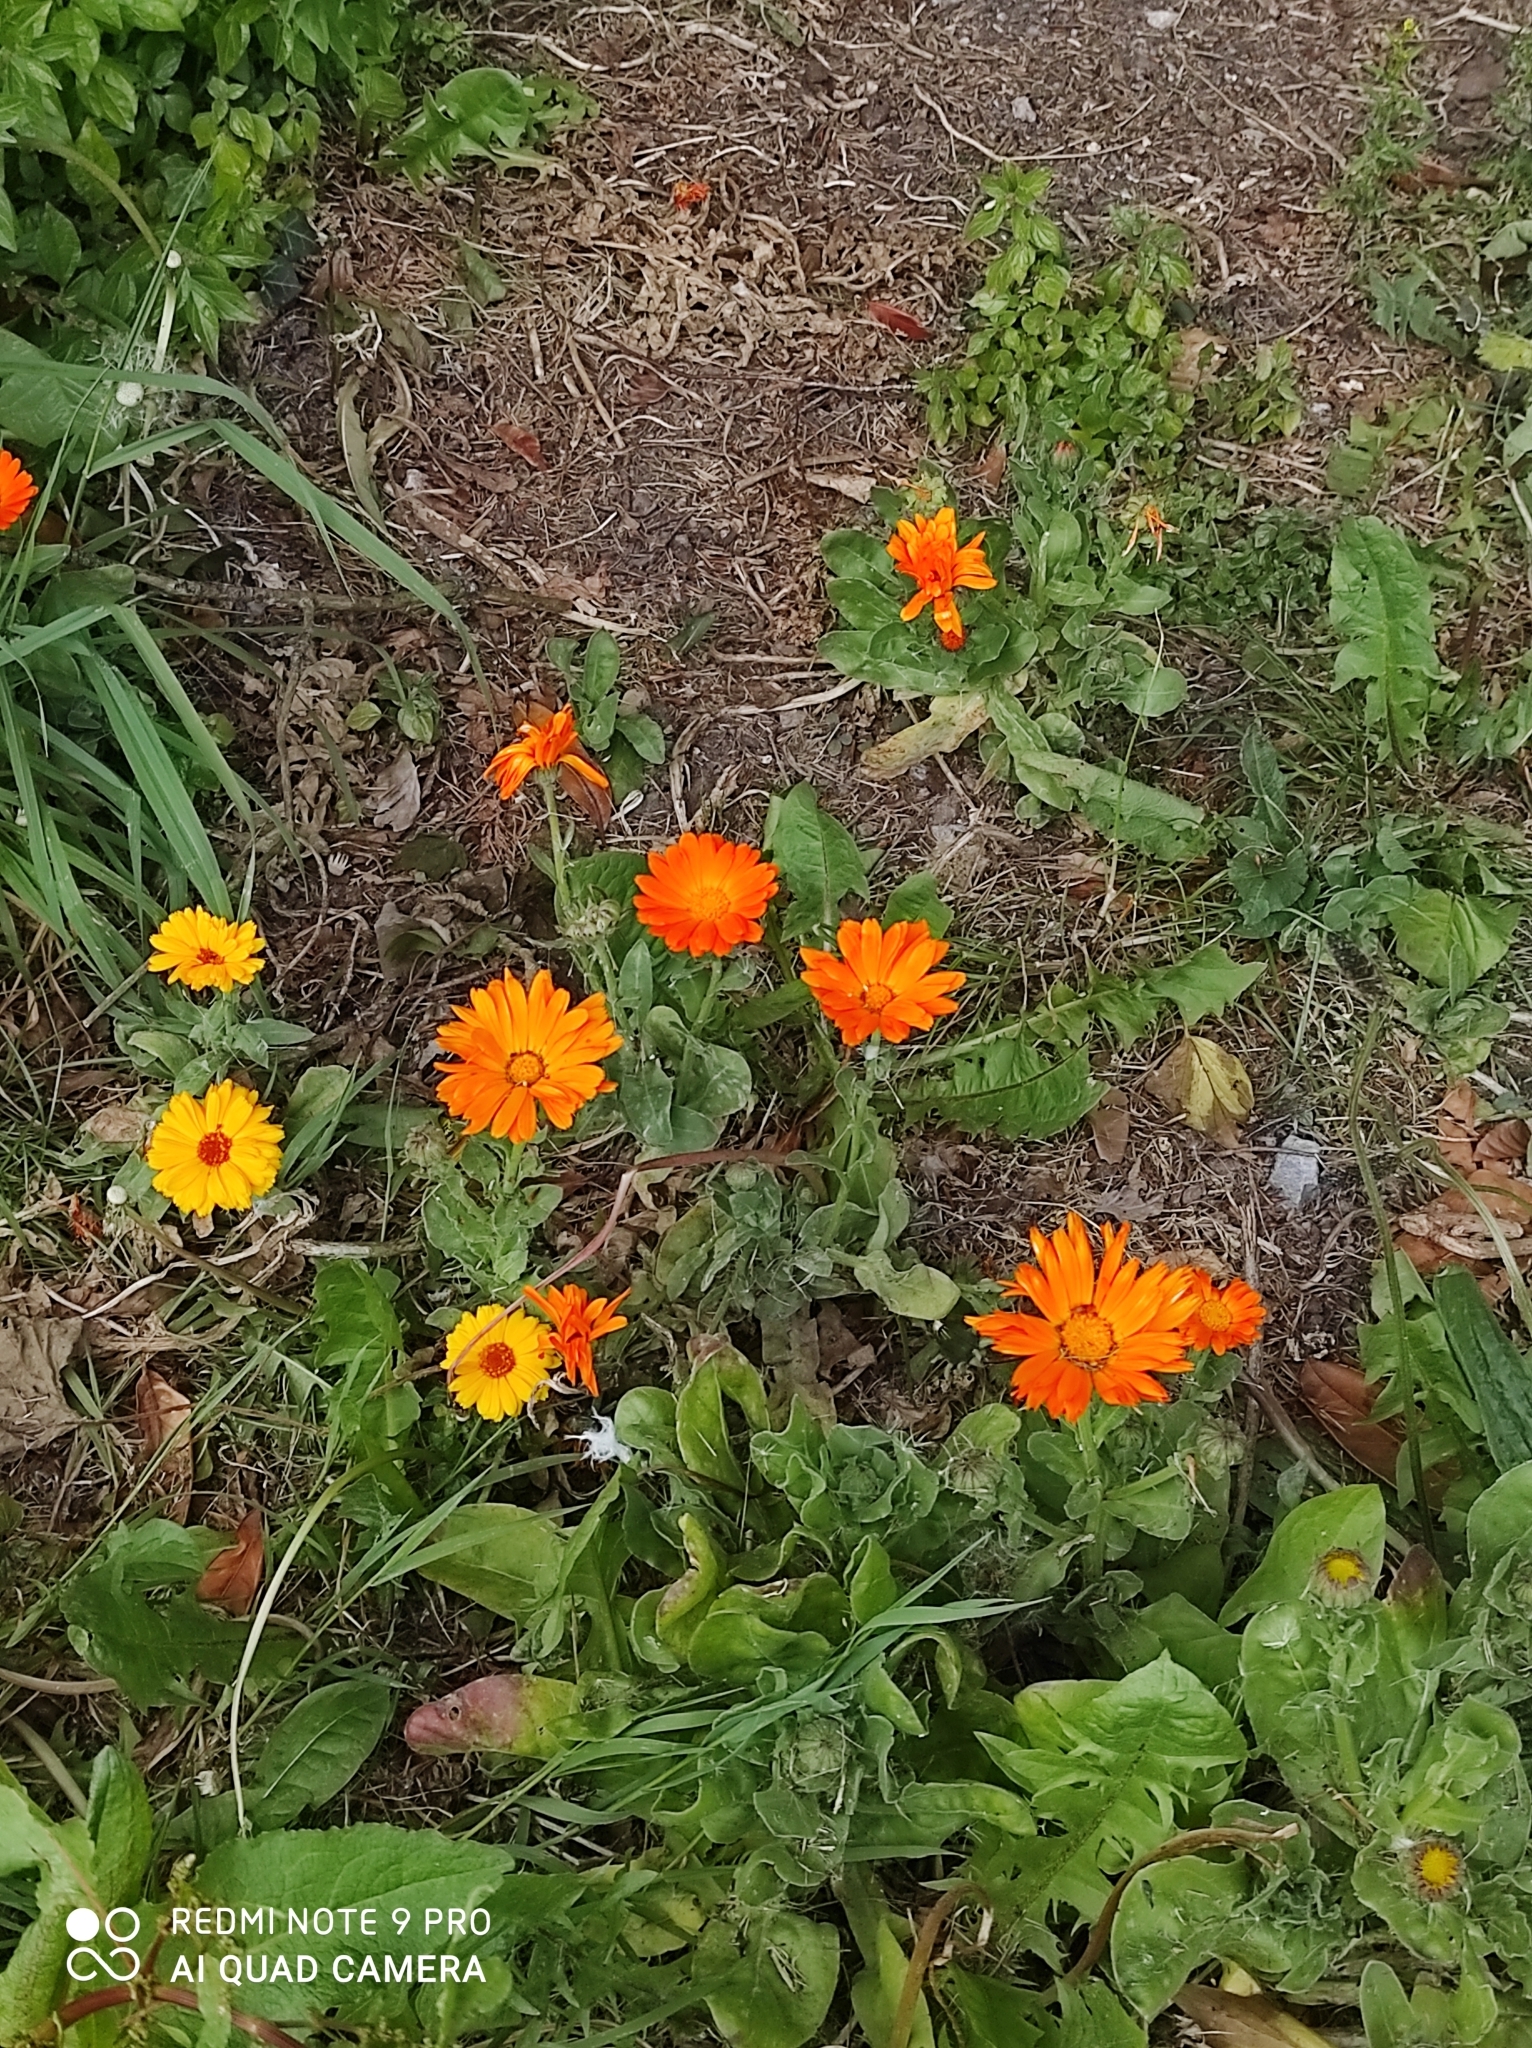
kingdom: Plantae
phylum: Tracheophyta
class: Magnoliopsida
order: Asterales
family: Asteraceae
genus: Calendula
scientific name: Calendula officinalis
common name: Pot marigold
